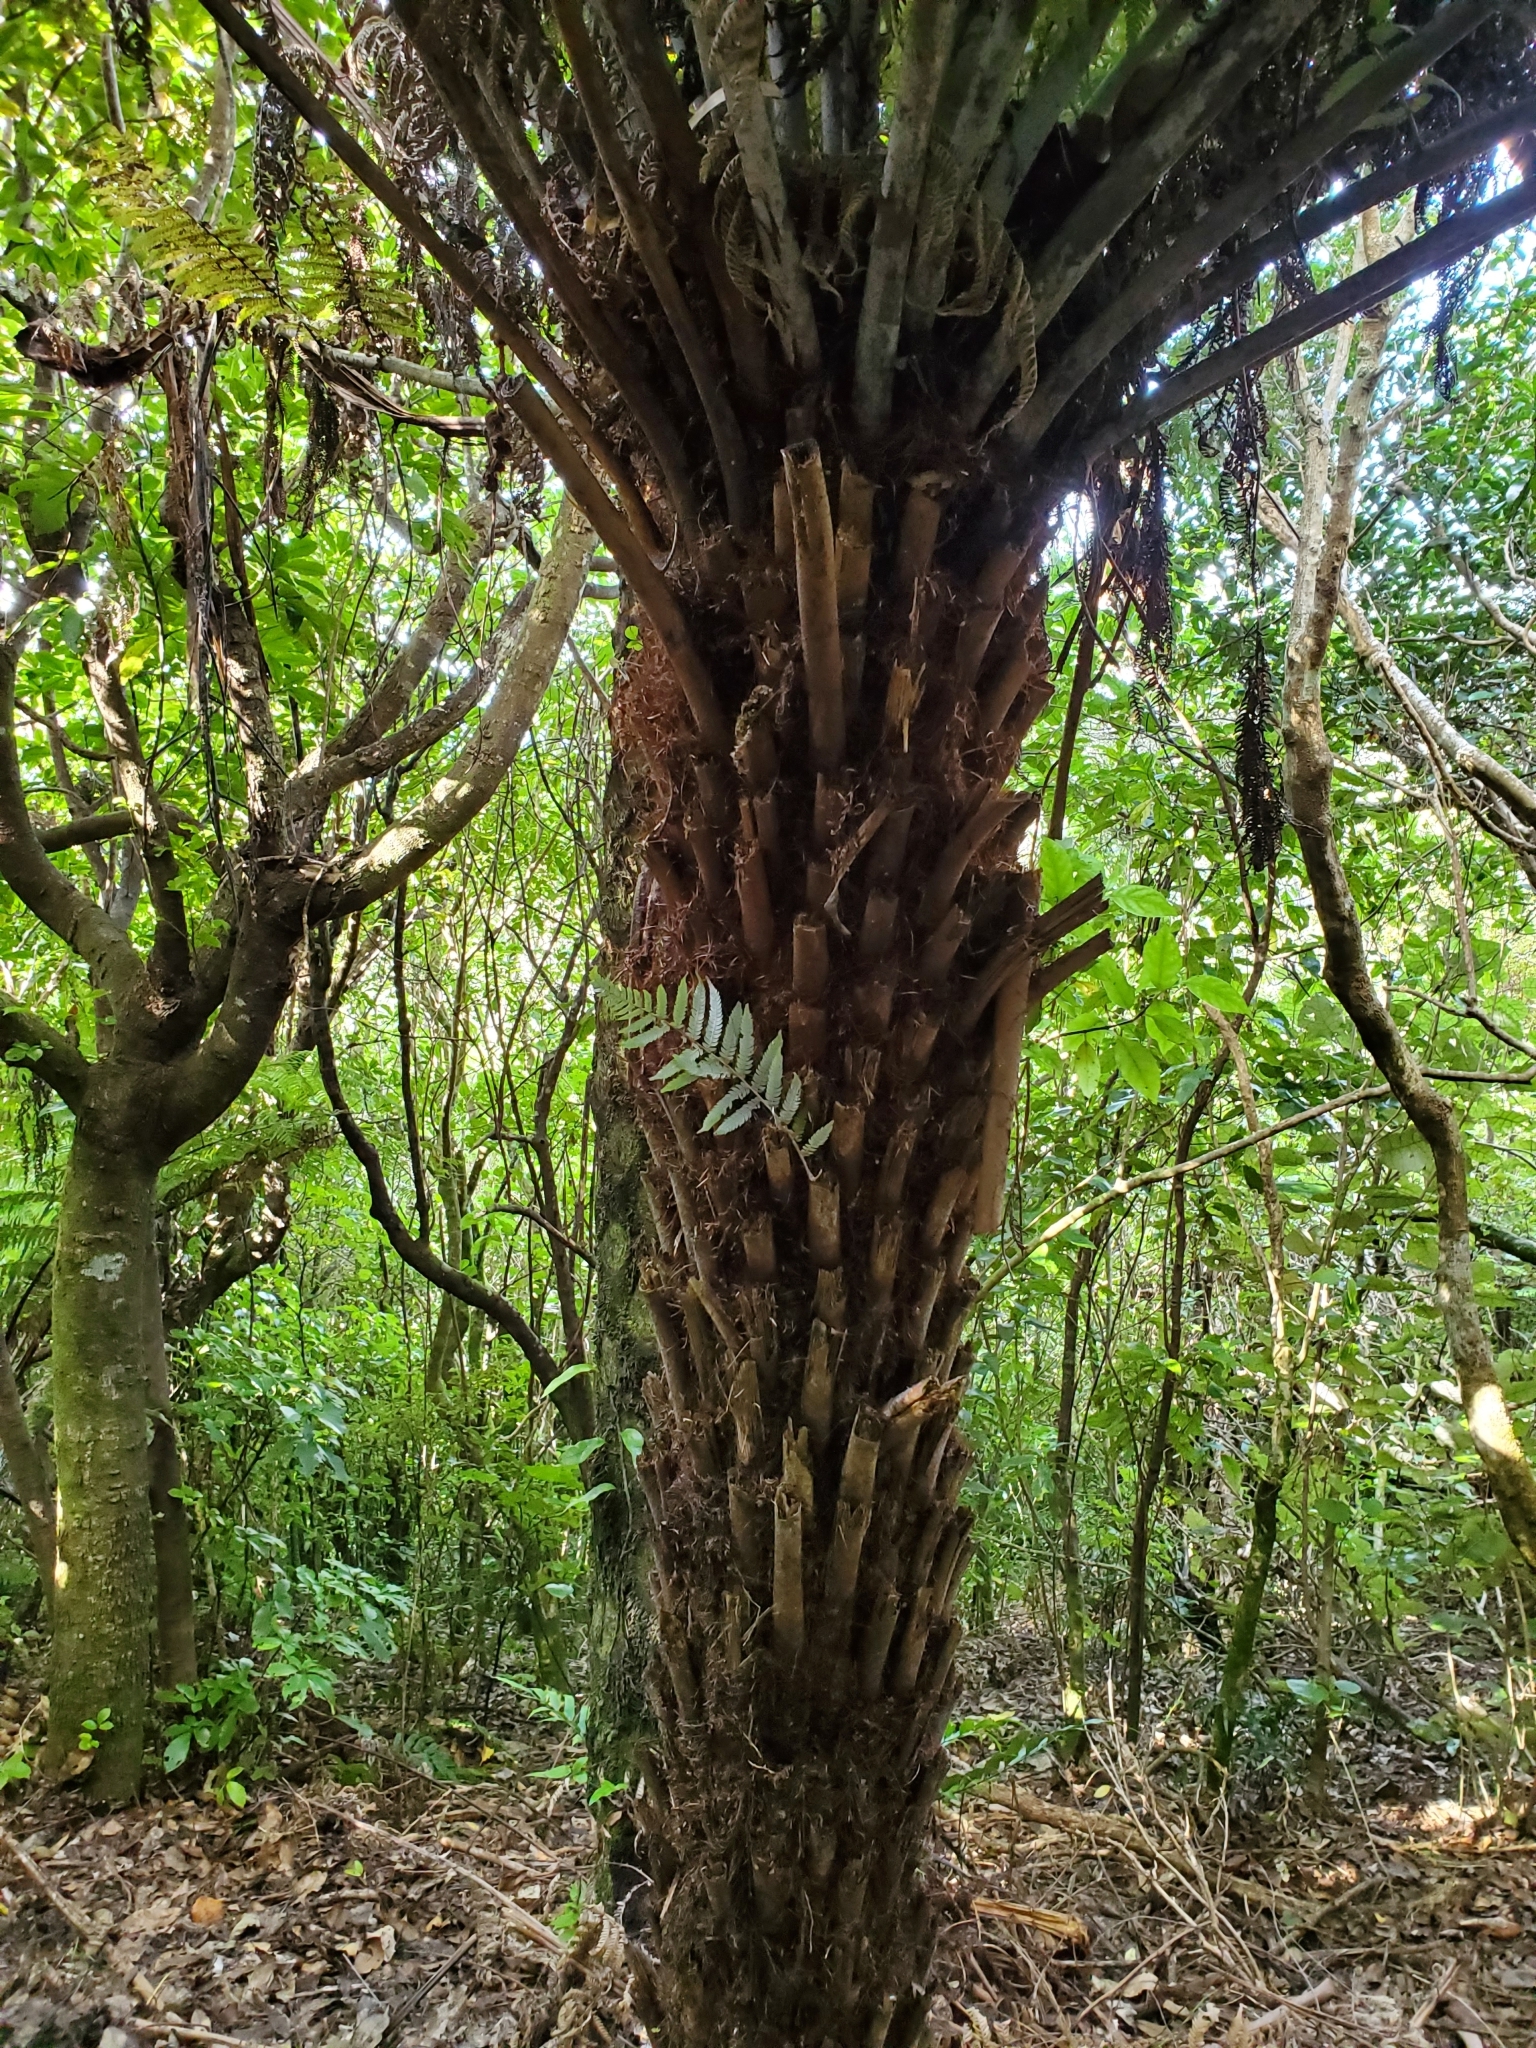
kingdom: Plantae
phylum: Tracheophyta
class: Polypodiopsida
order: Cyatheales
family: Cyatheaceae
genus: Alsophila
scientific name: Alsophila dealbata
